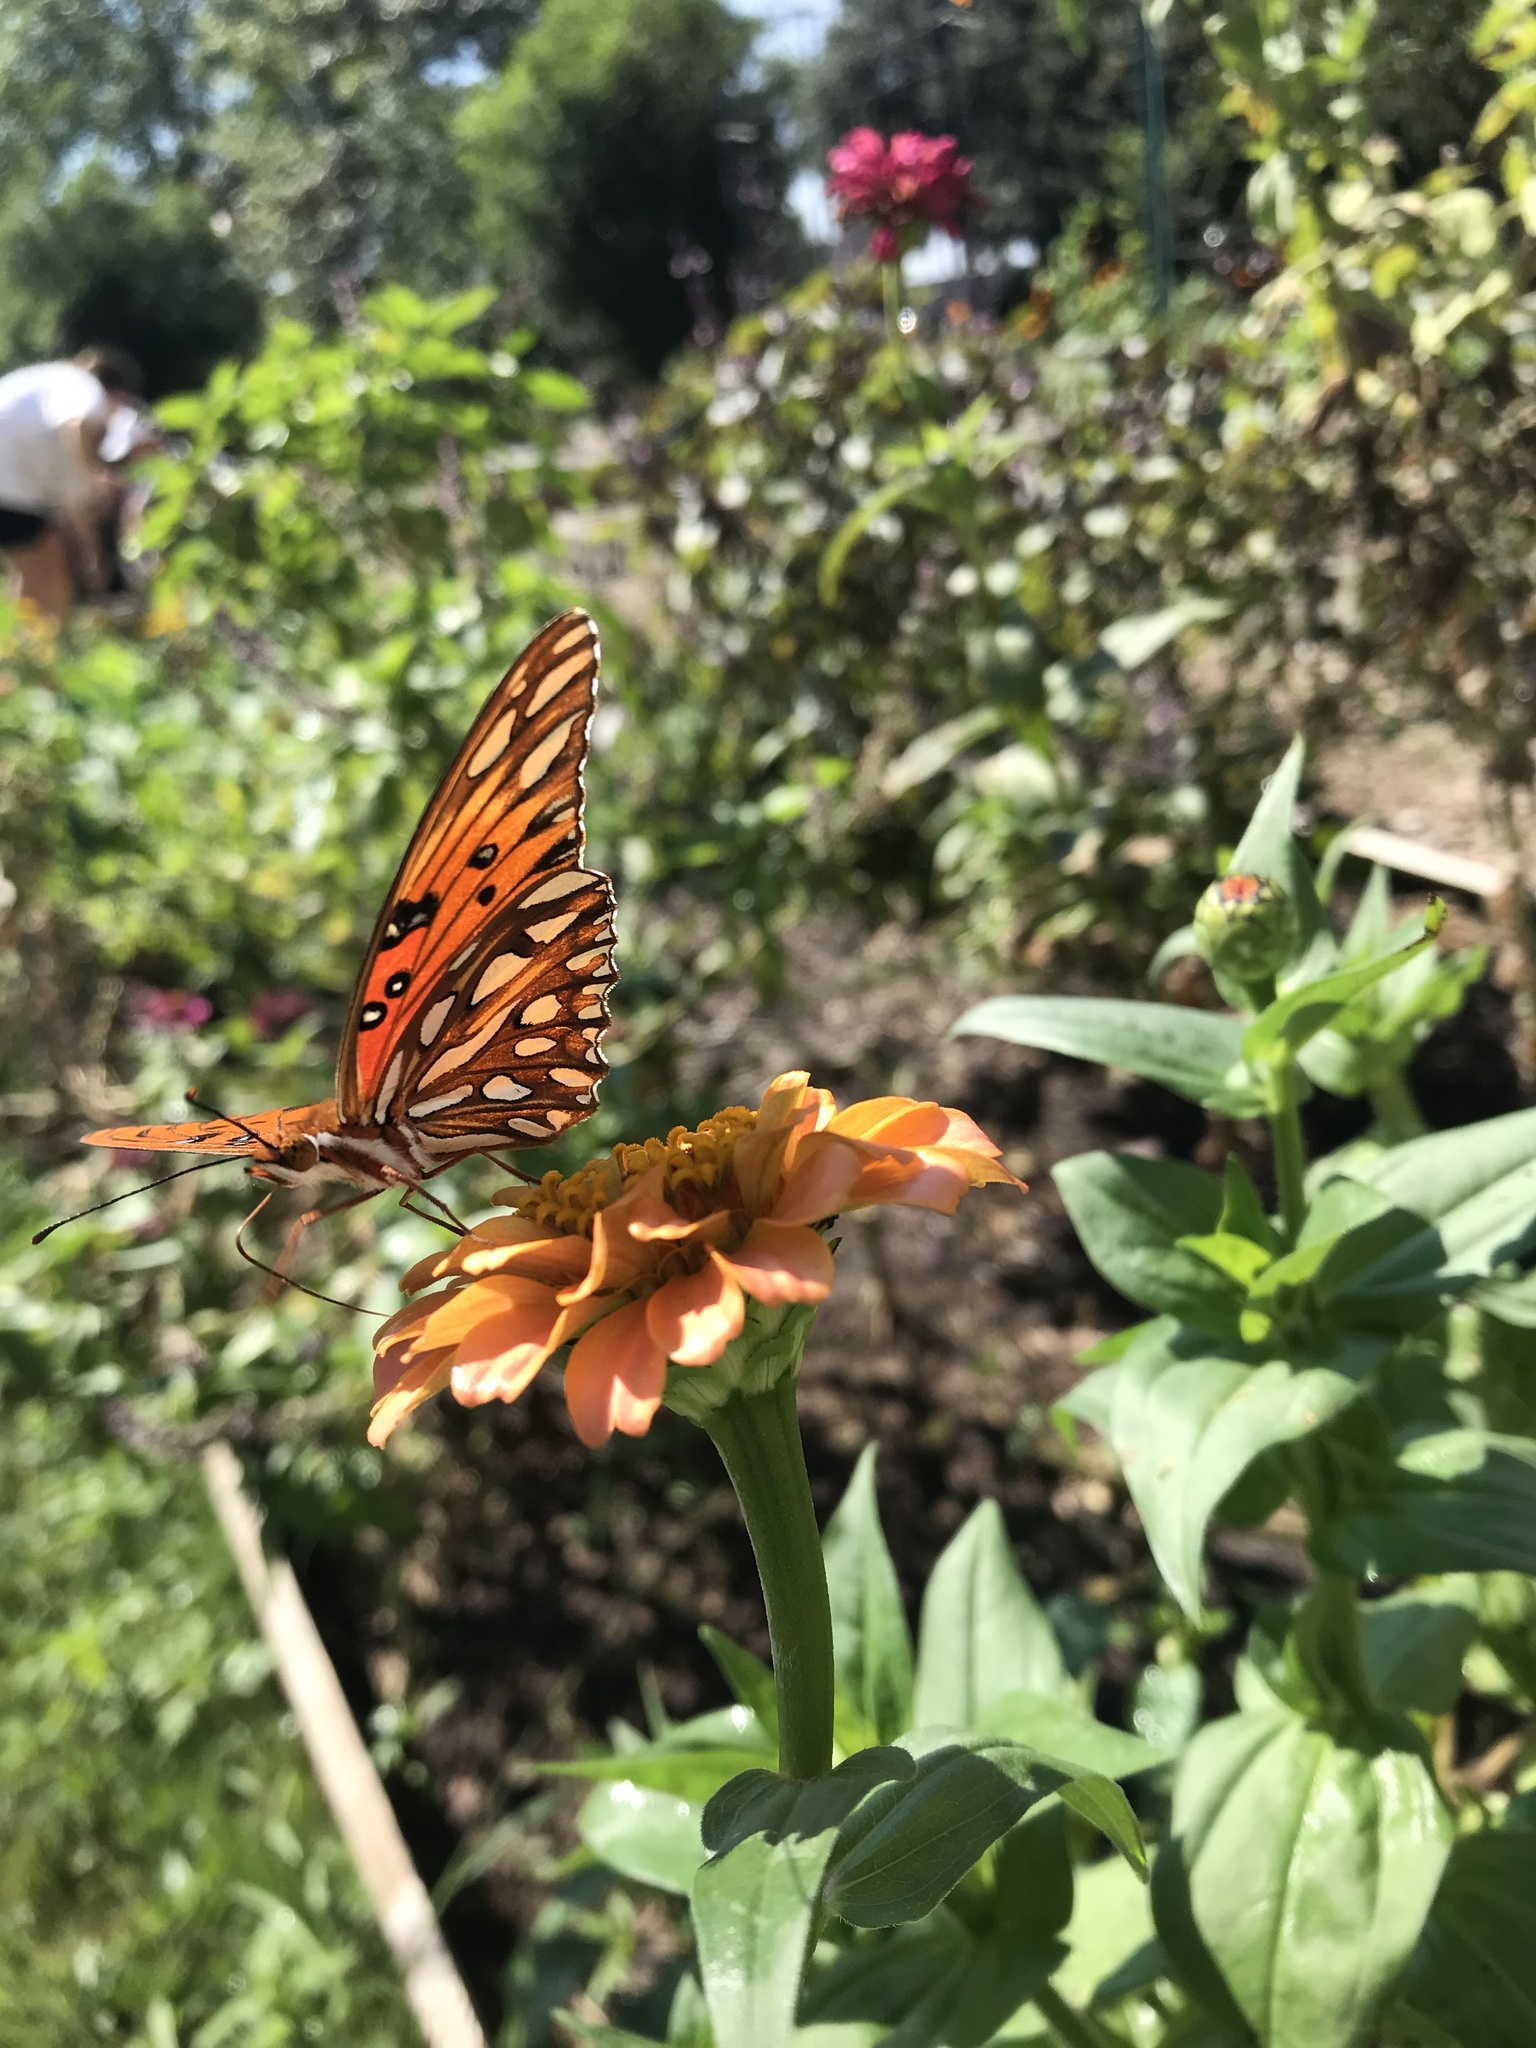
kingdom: Animalia
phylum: Arthropoda
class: Insecta
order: Lepidoptera
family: Nymphalidae
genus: Dione
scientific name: Dione vanillae
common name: Gulf fritillary
